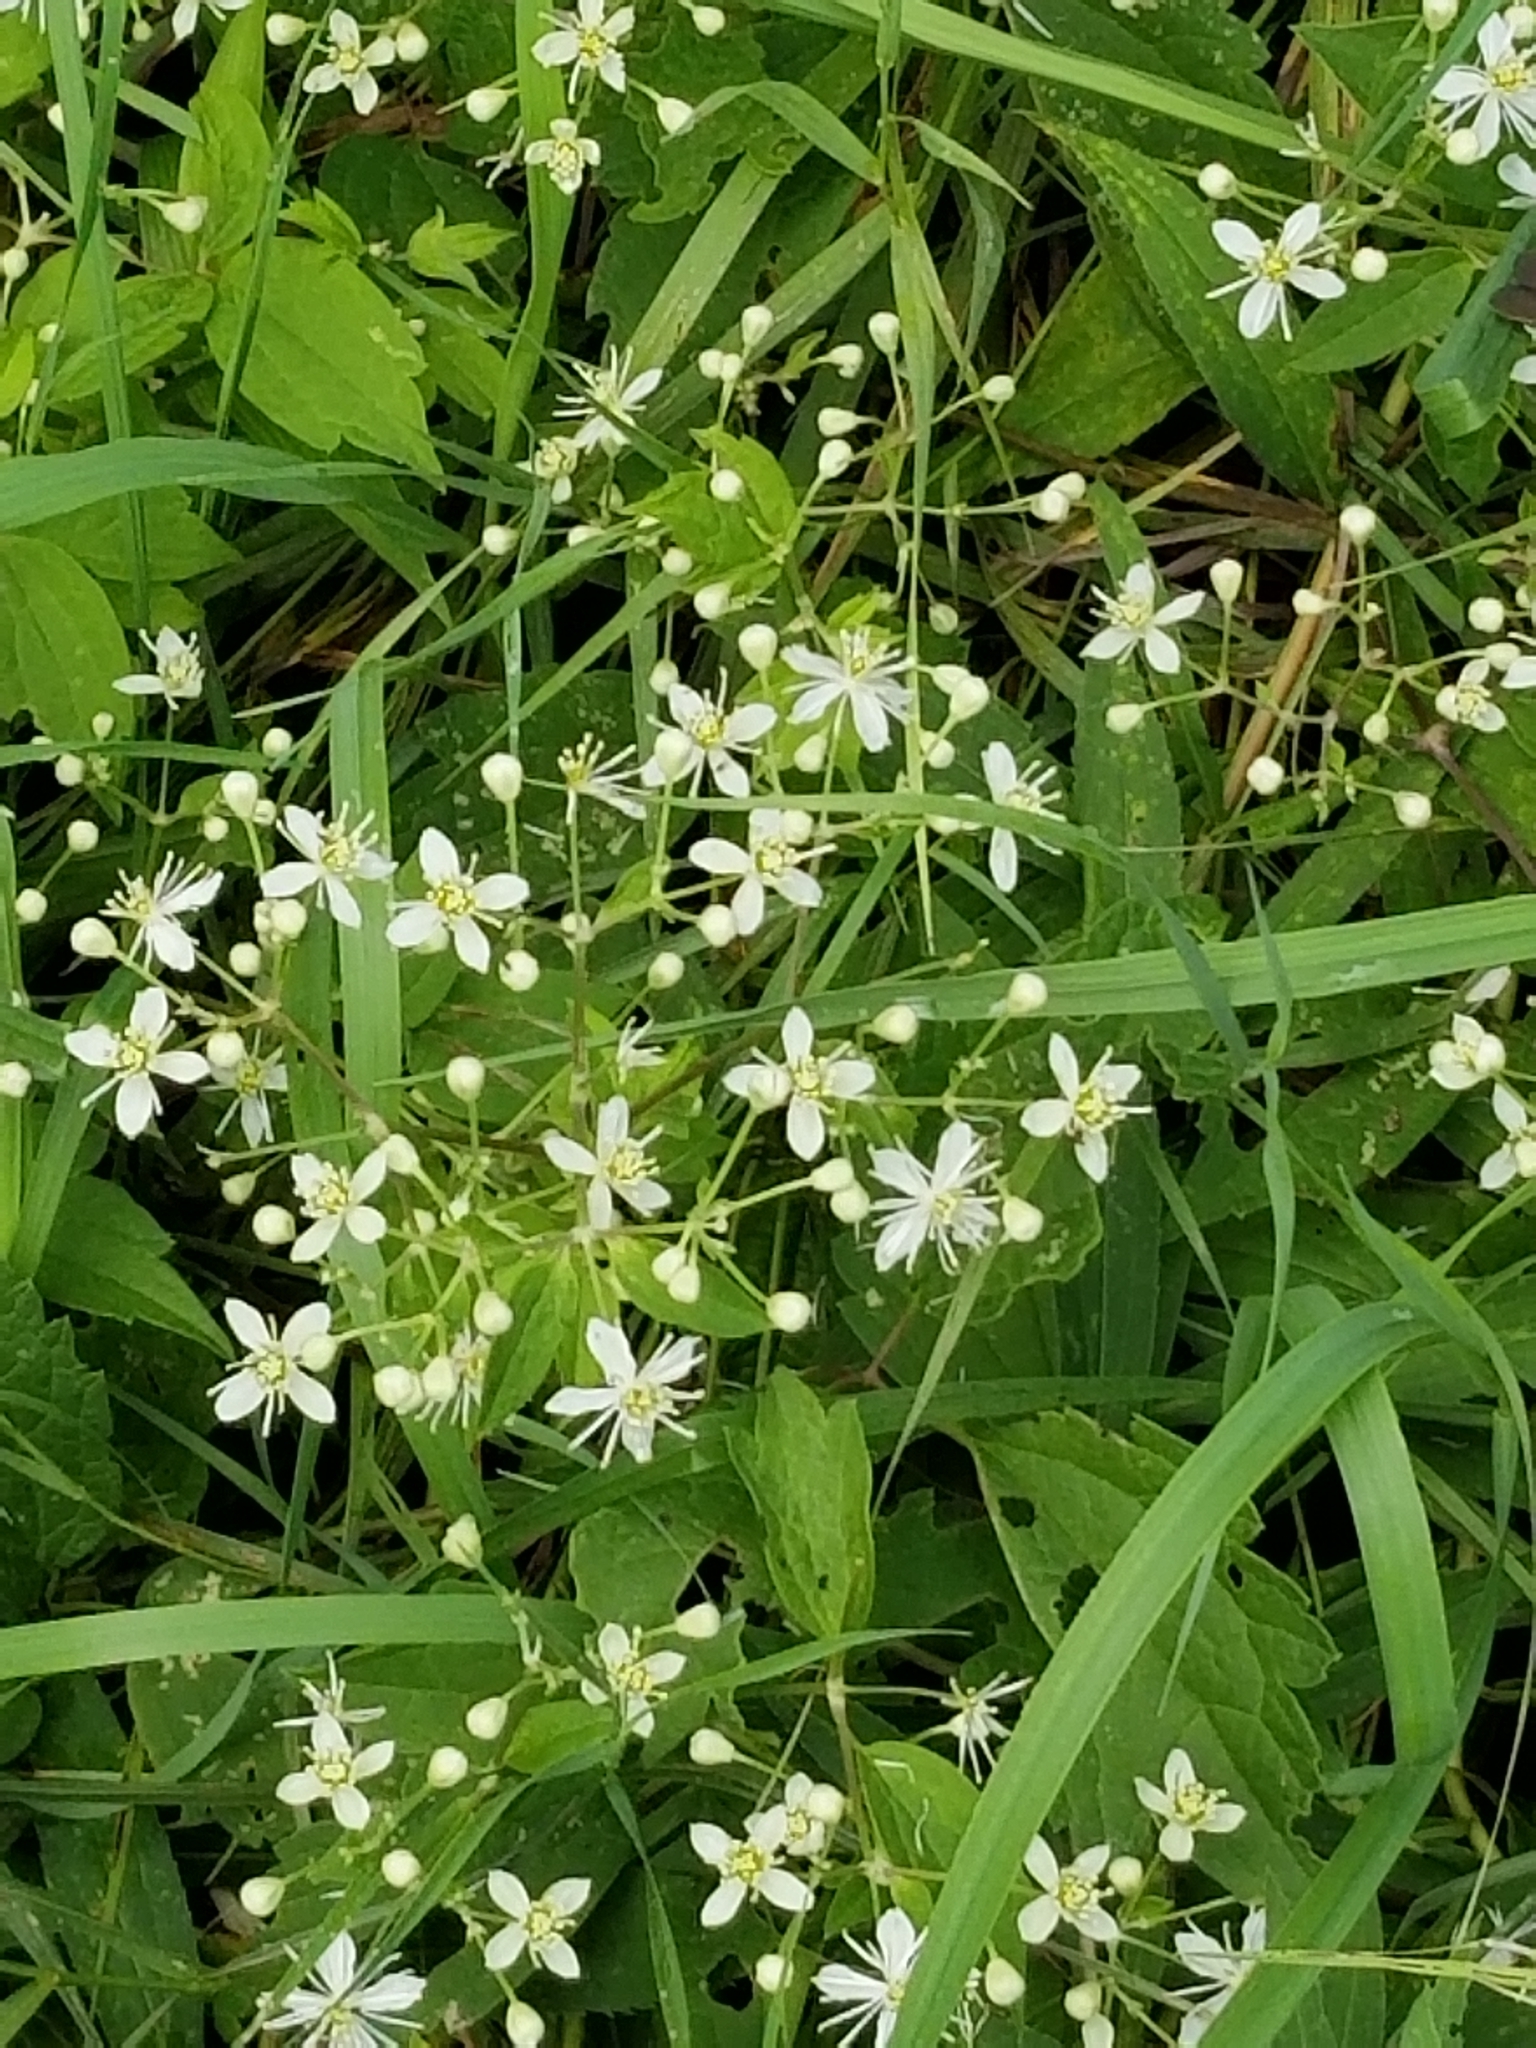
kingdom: Plantae
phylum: Tracheophyta
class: Magnoliopsida
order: Ranunculales
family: Ranunculaceae
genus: Clematis
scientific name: Clematis virginiana
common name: Virgin's-bower
